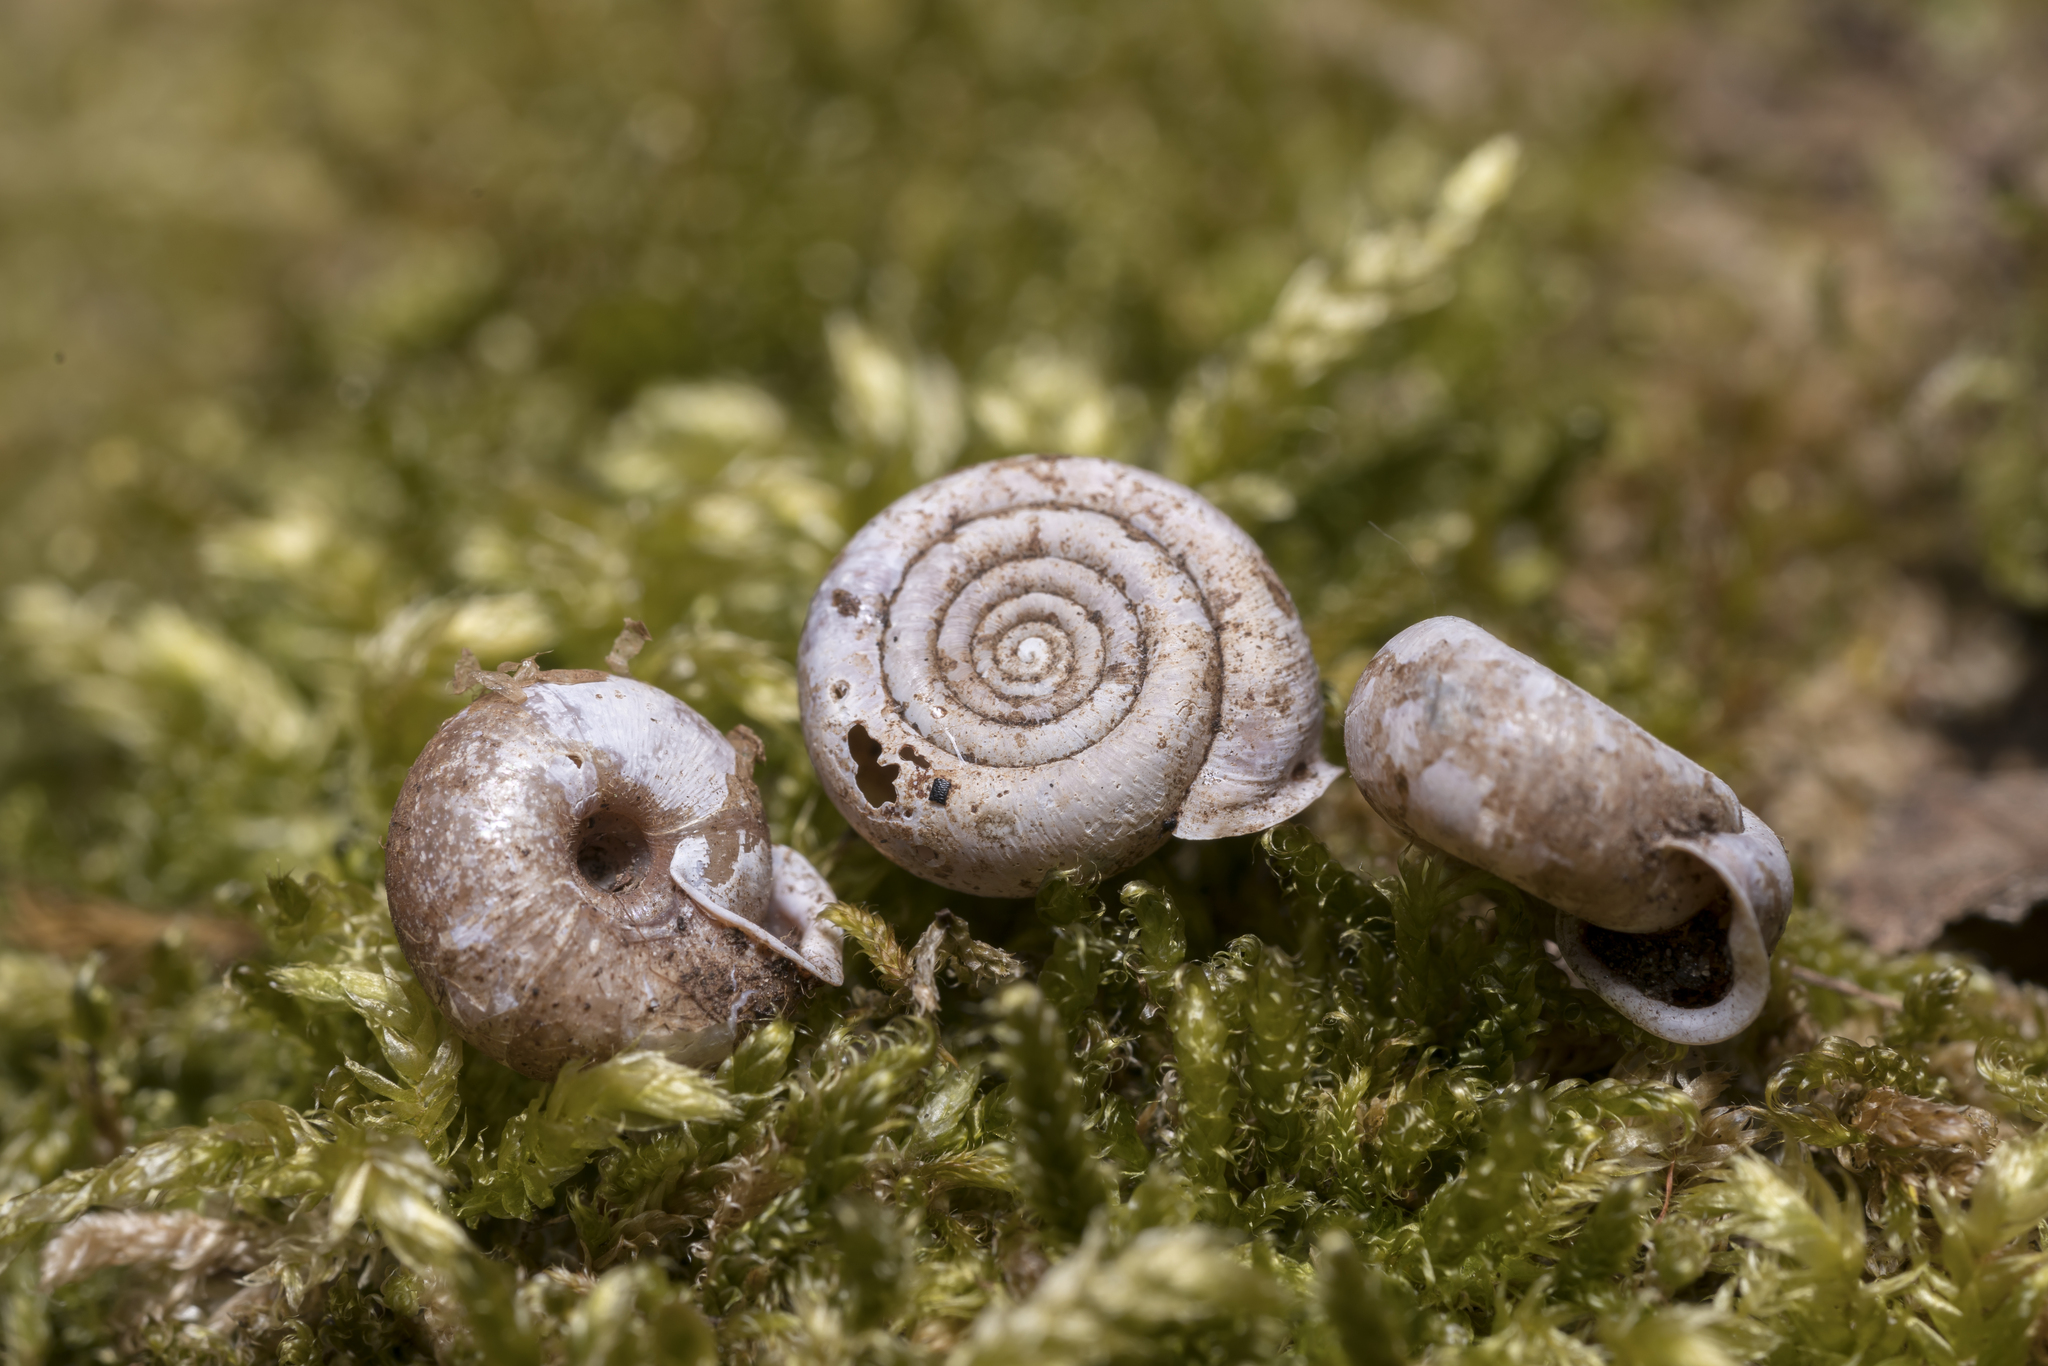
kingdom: Animalia
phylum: Mollusca
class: Gastropoda
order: Stylommatophora
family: Helicodontidae
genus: Helicodonta
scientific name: Helicodonta obvoluta
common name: Cheese snail
